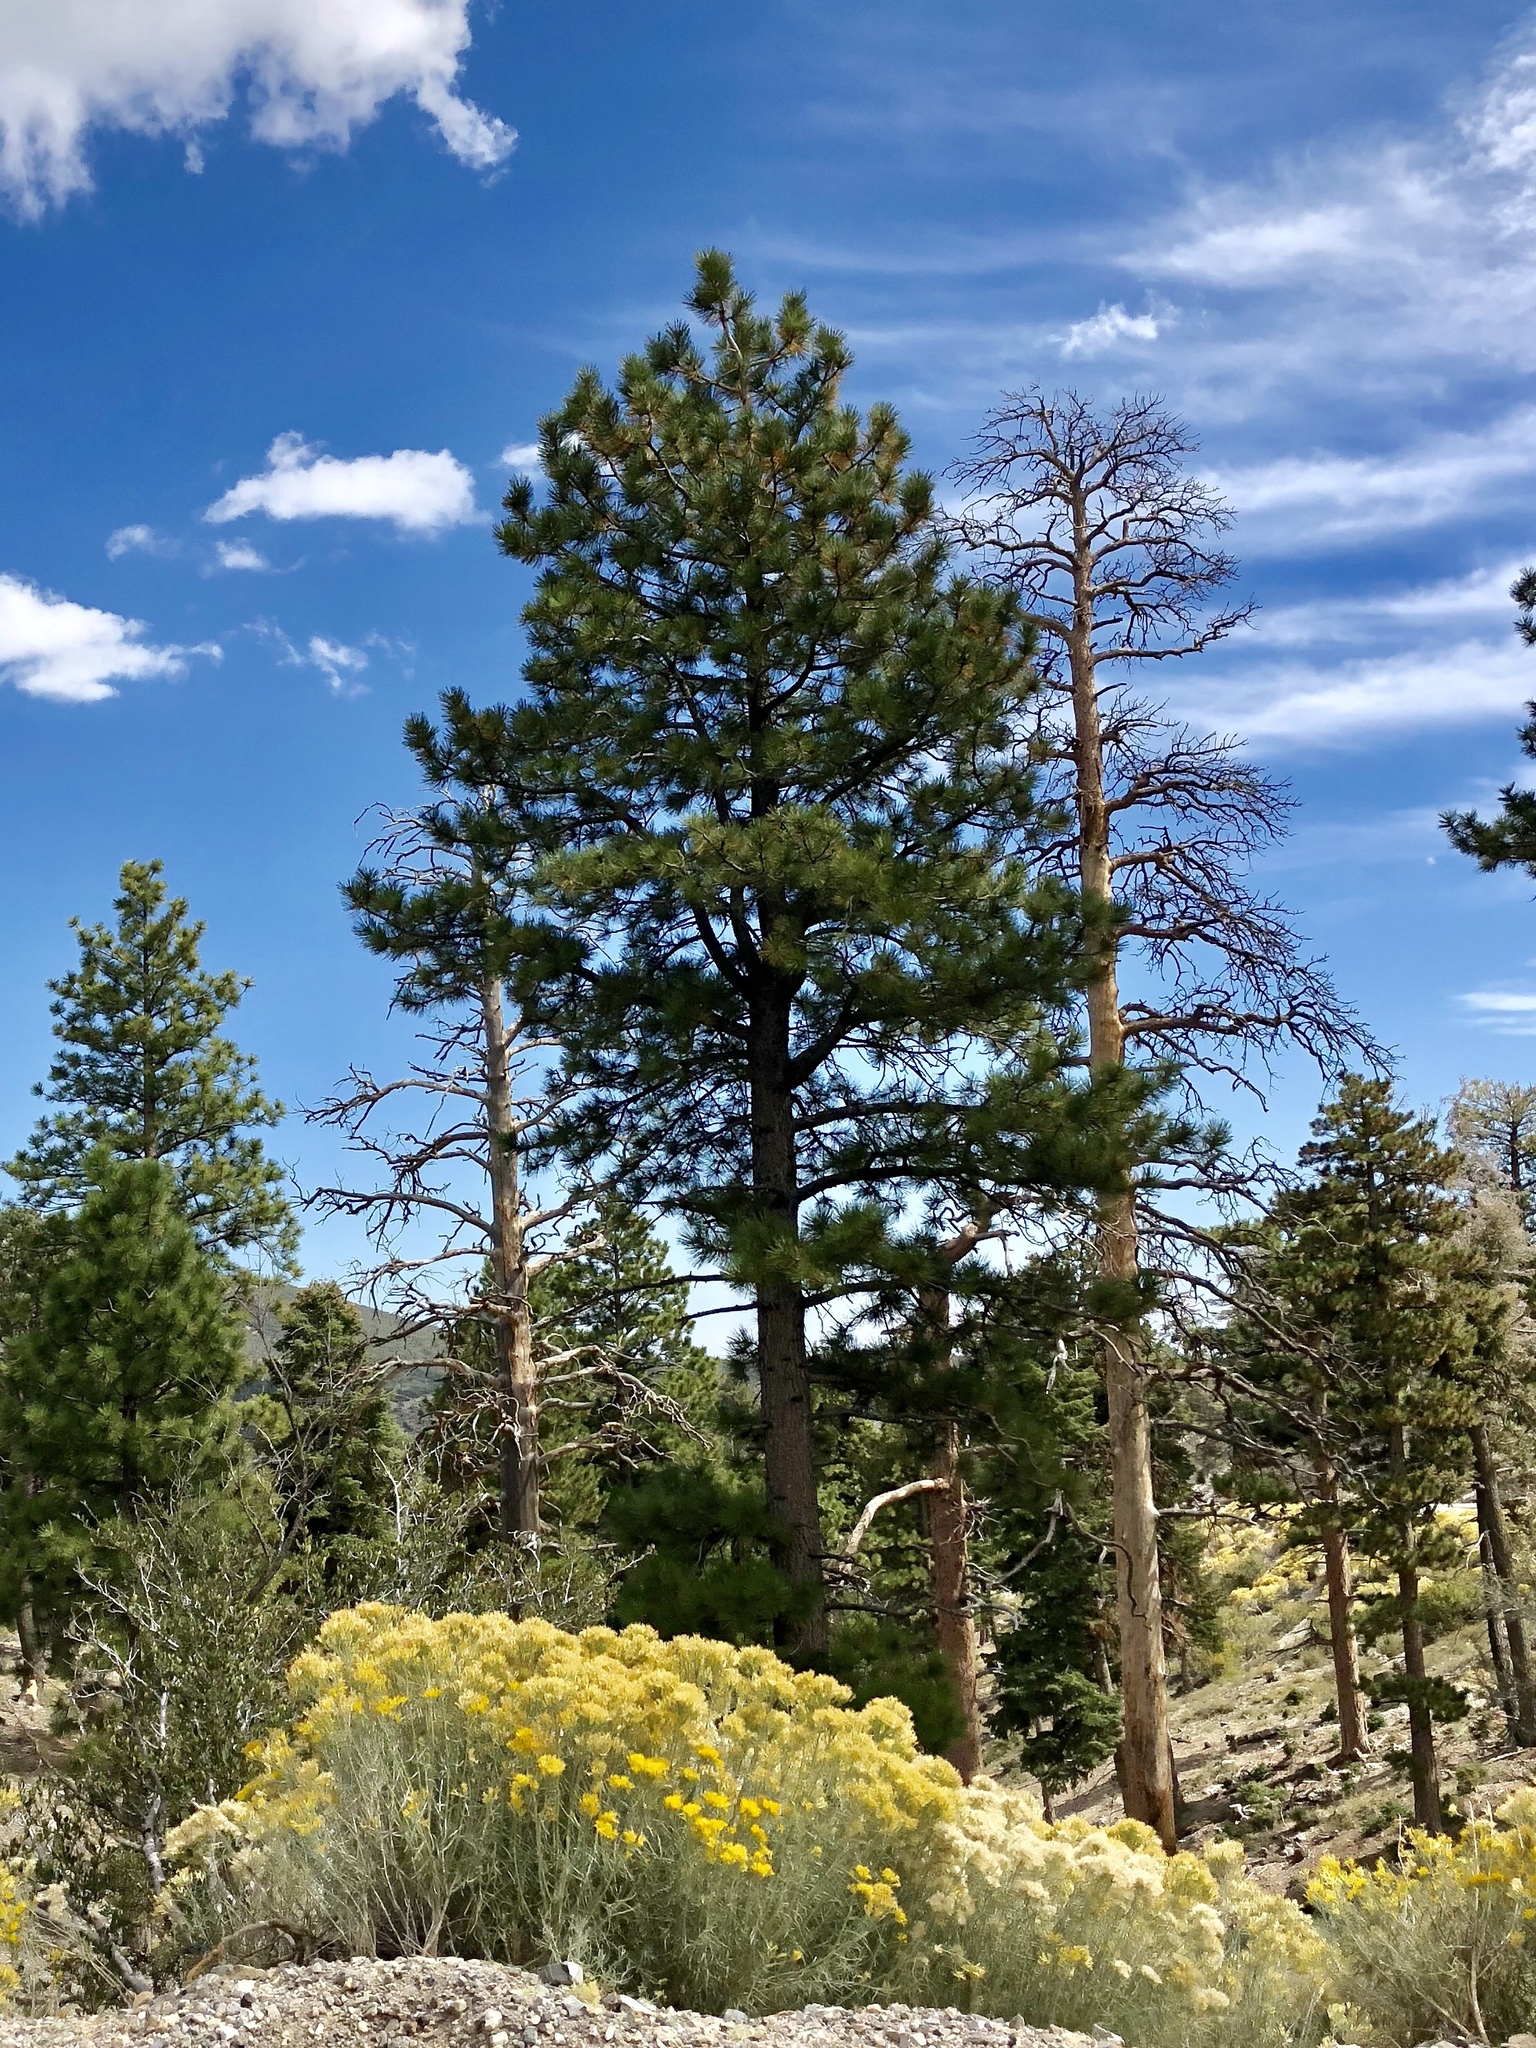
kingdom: Plantae
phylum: Tracheophyta
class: Pinopsida
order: Pinales
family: Pinaceae
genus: Pinus
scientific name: Pinus ponderosa
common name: Western yellow-pine
